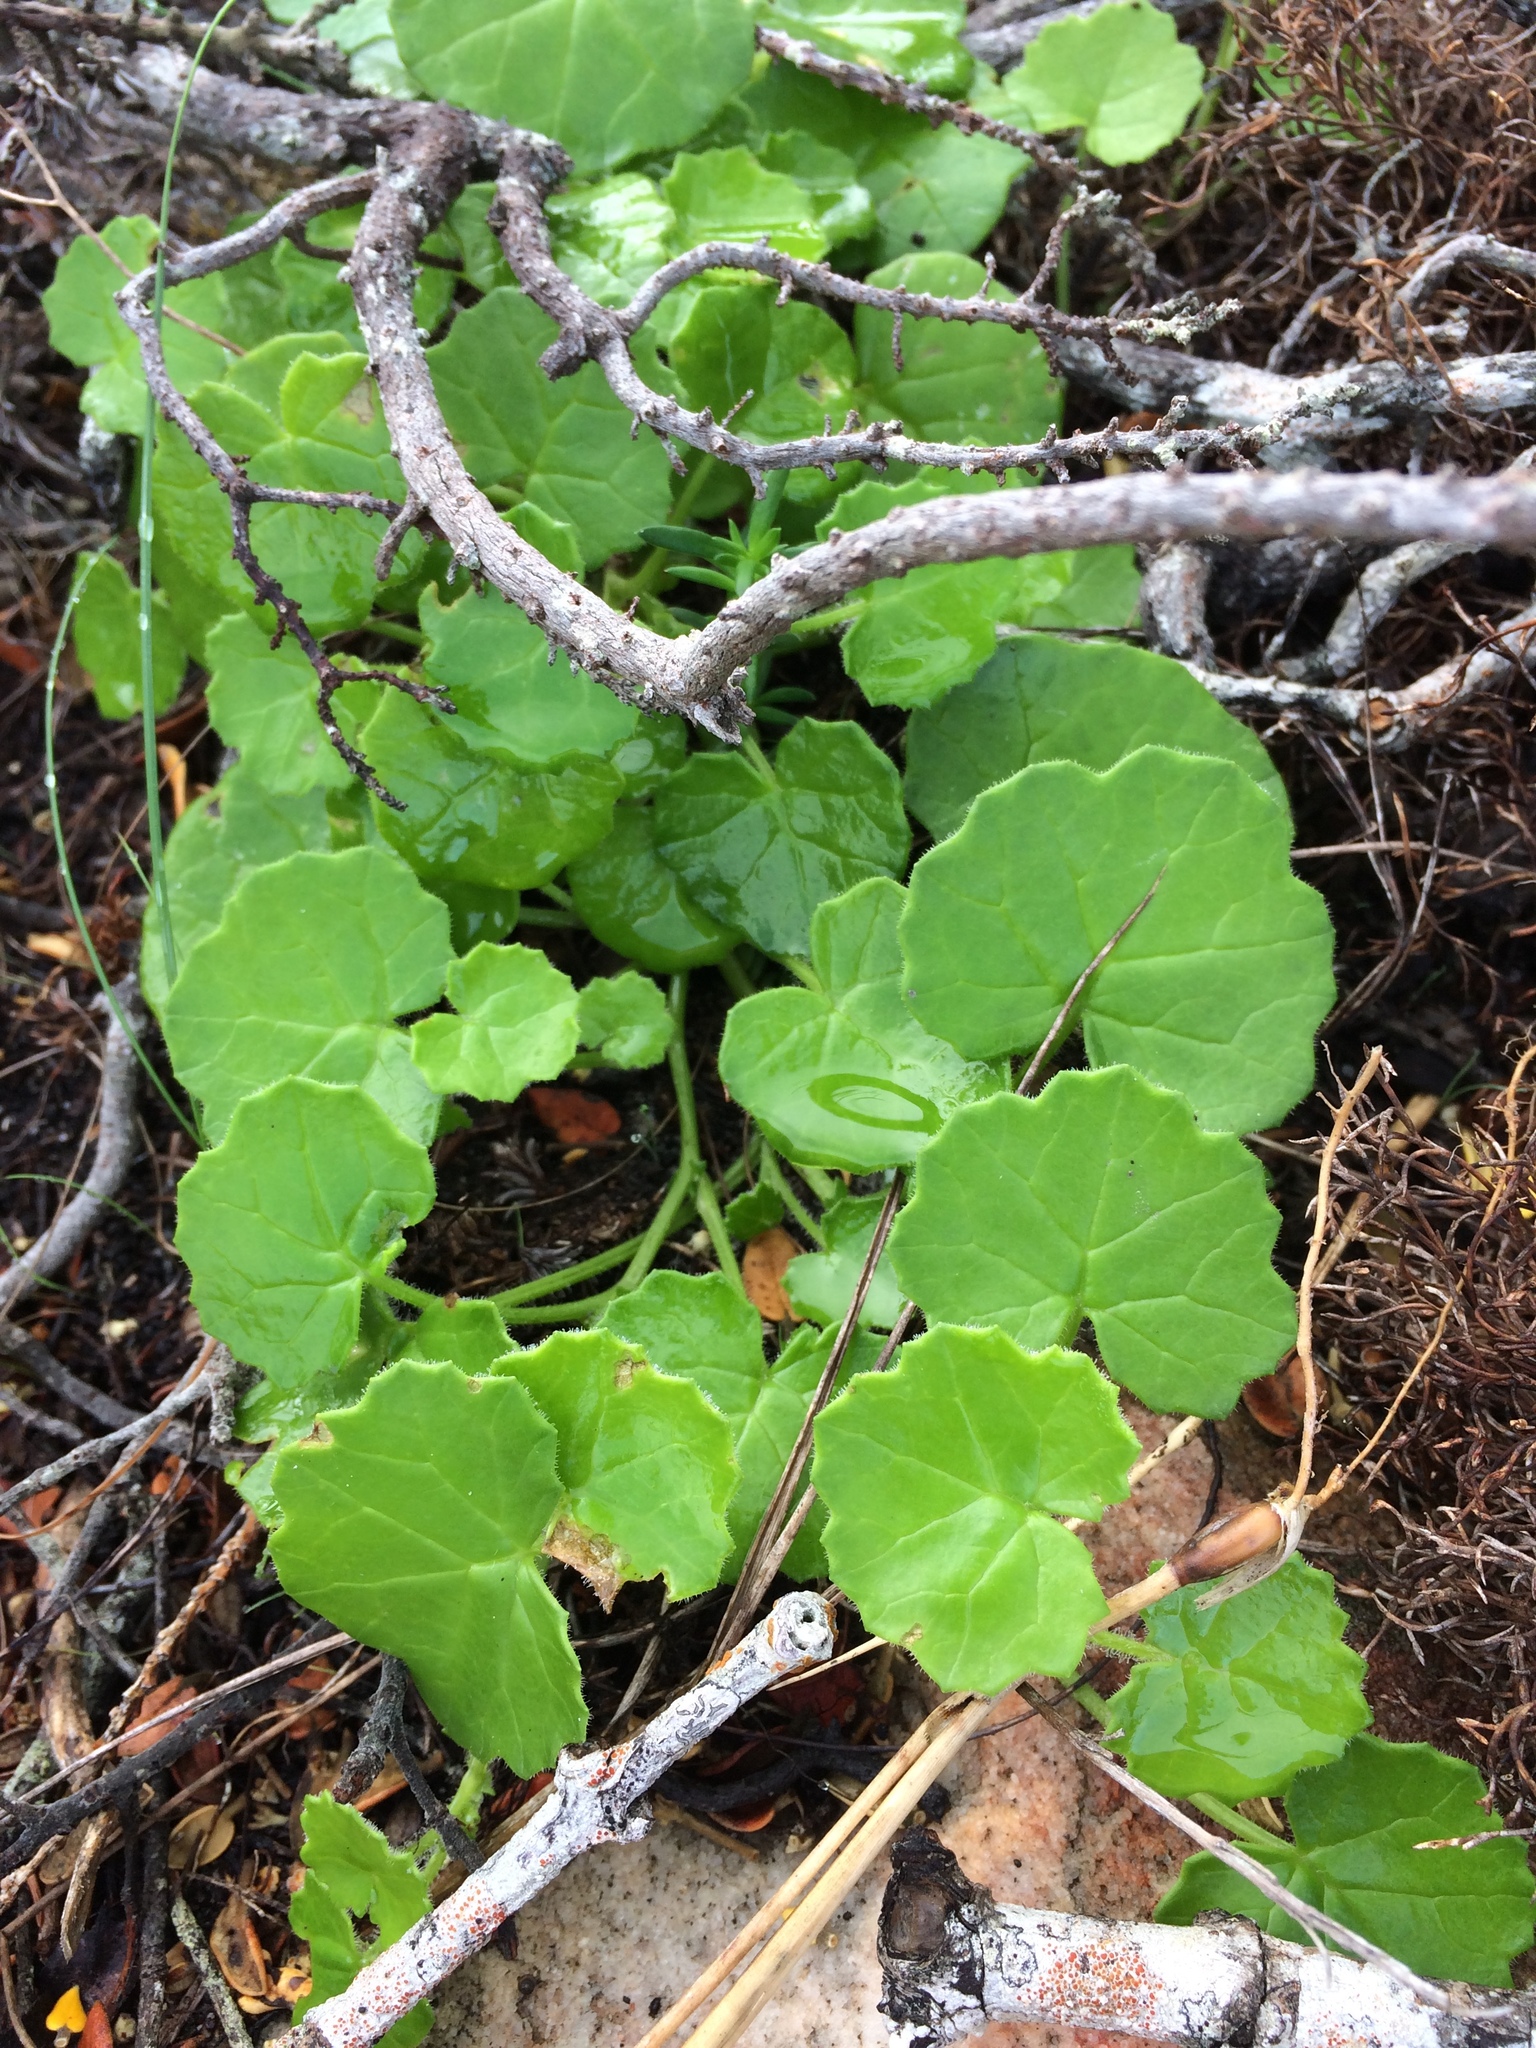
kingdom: Plantae
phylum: Tracheophyta
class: Magnoliopsida
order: Asterales
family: Asteraceae
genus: Cineraria
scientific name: Cineraria geifolia
